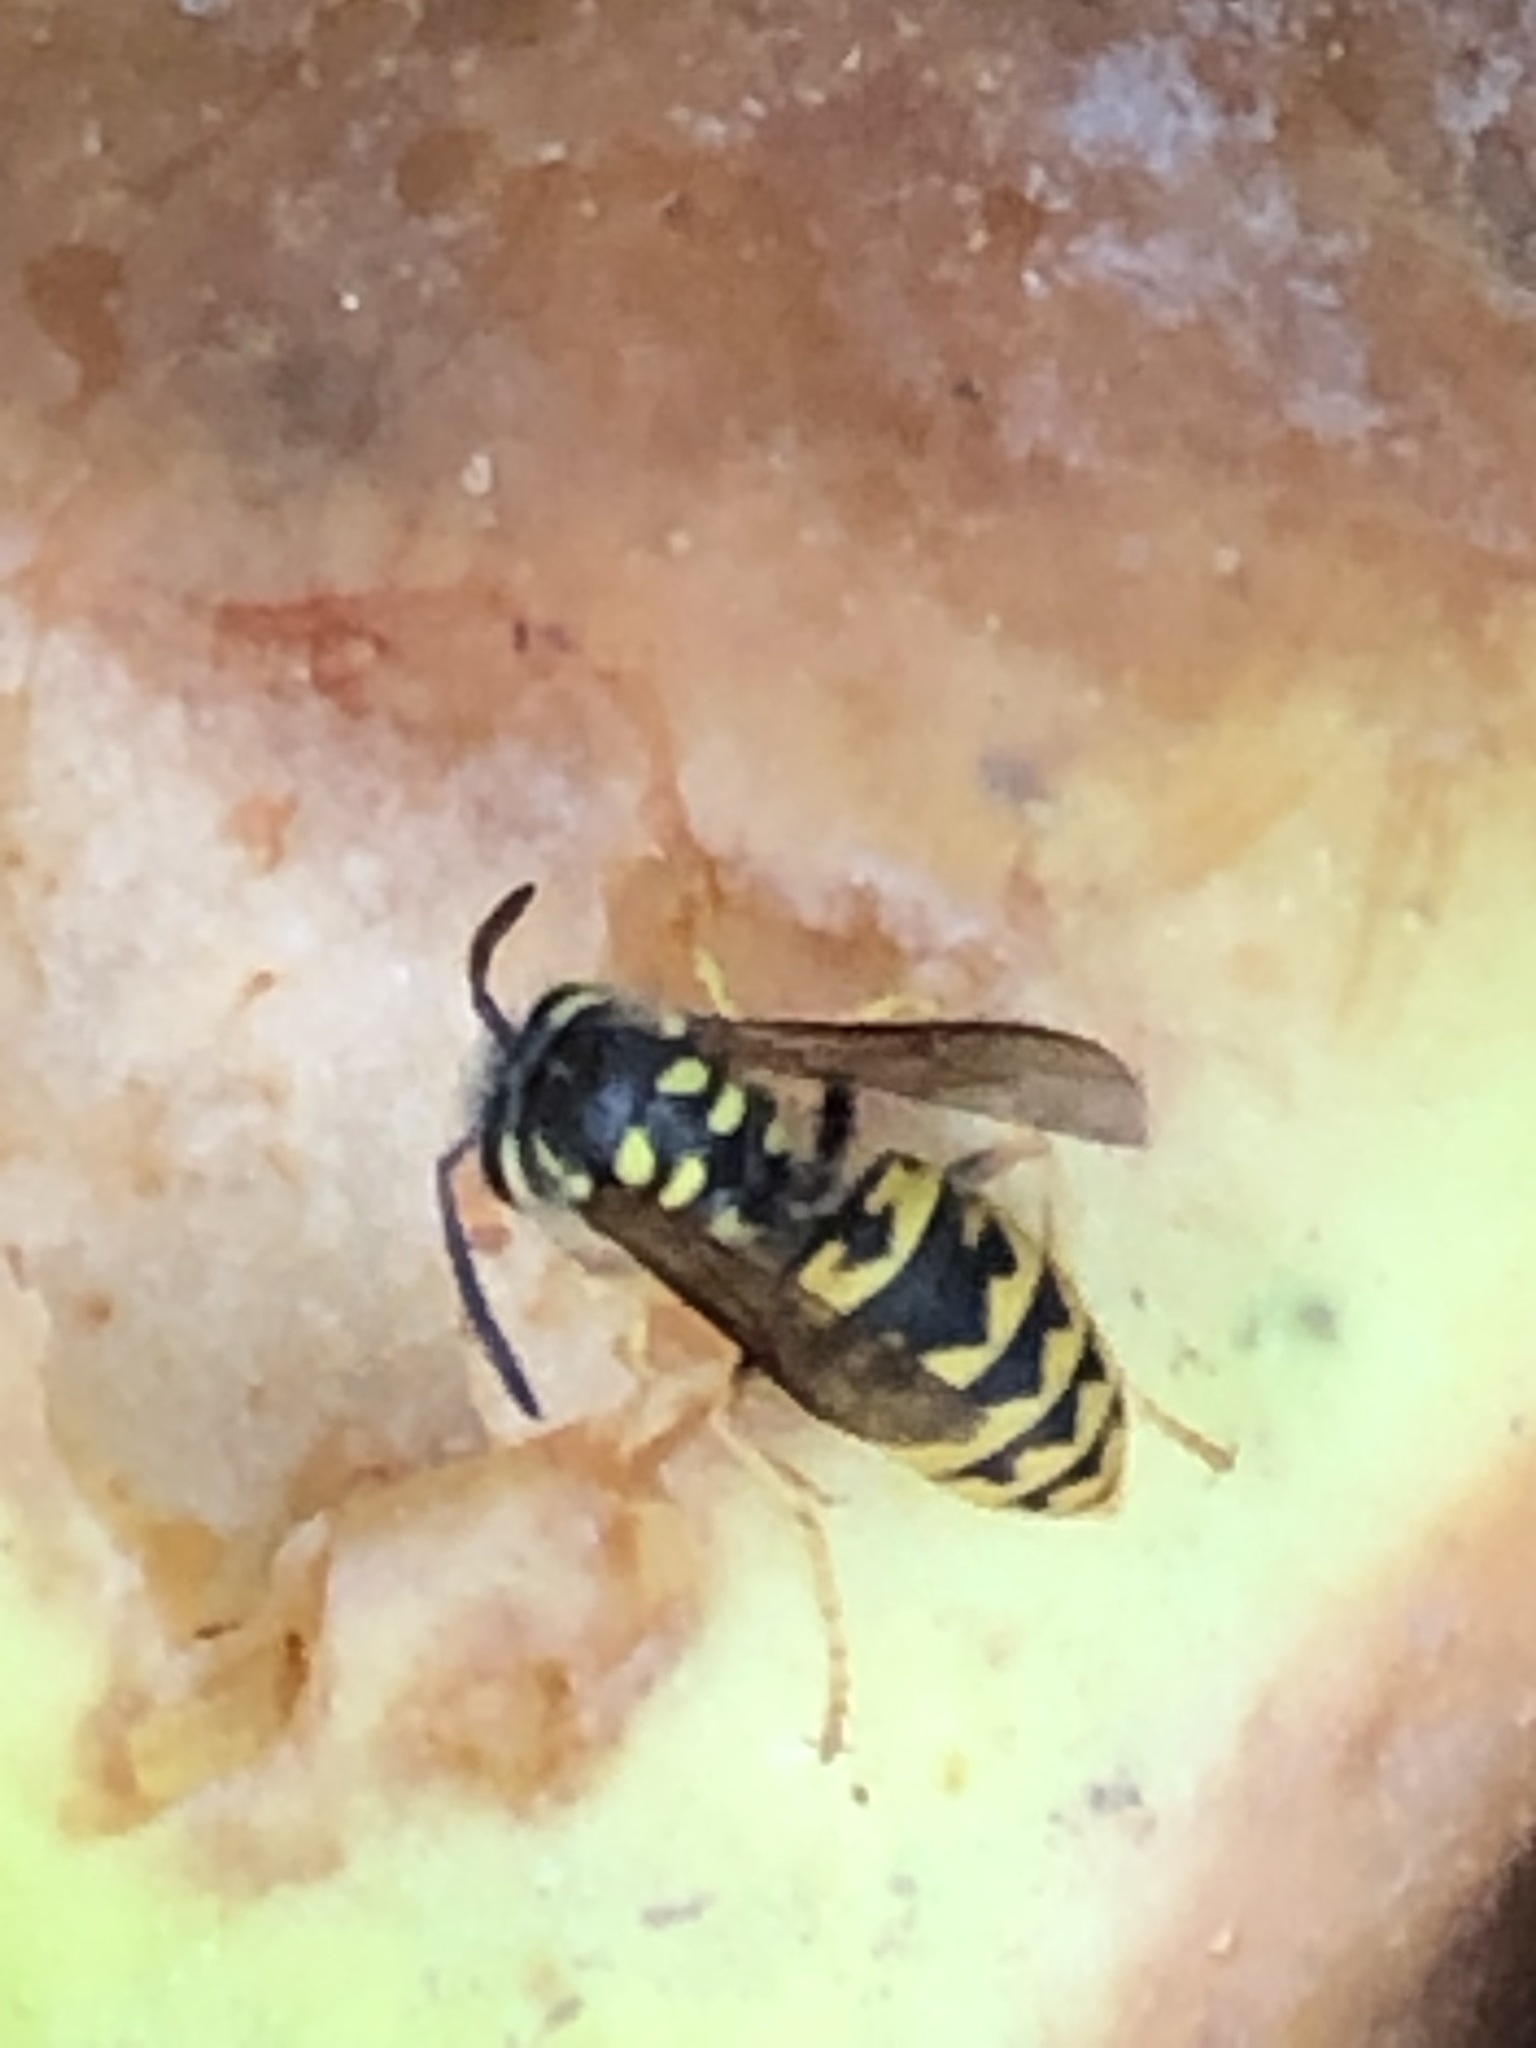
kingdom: Animalia
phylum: Arthropoda
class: Insecta
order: Hymenoptera
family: Vespidae
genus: Vespula
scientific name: Vespula germanica
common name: German wasp
